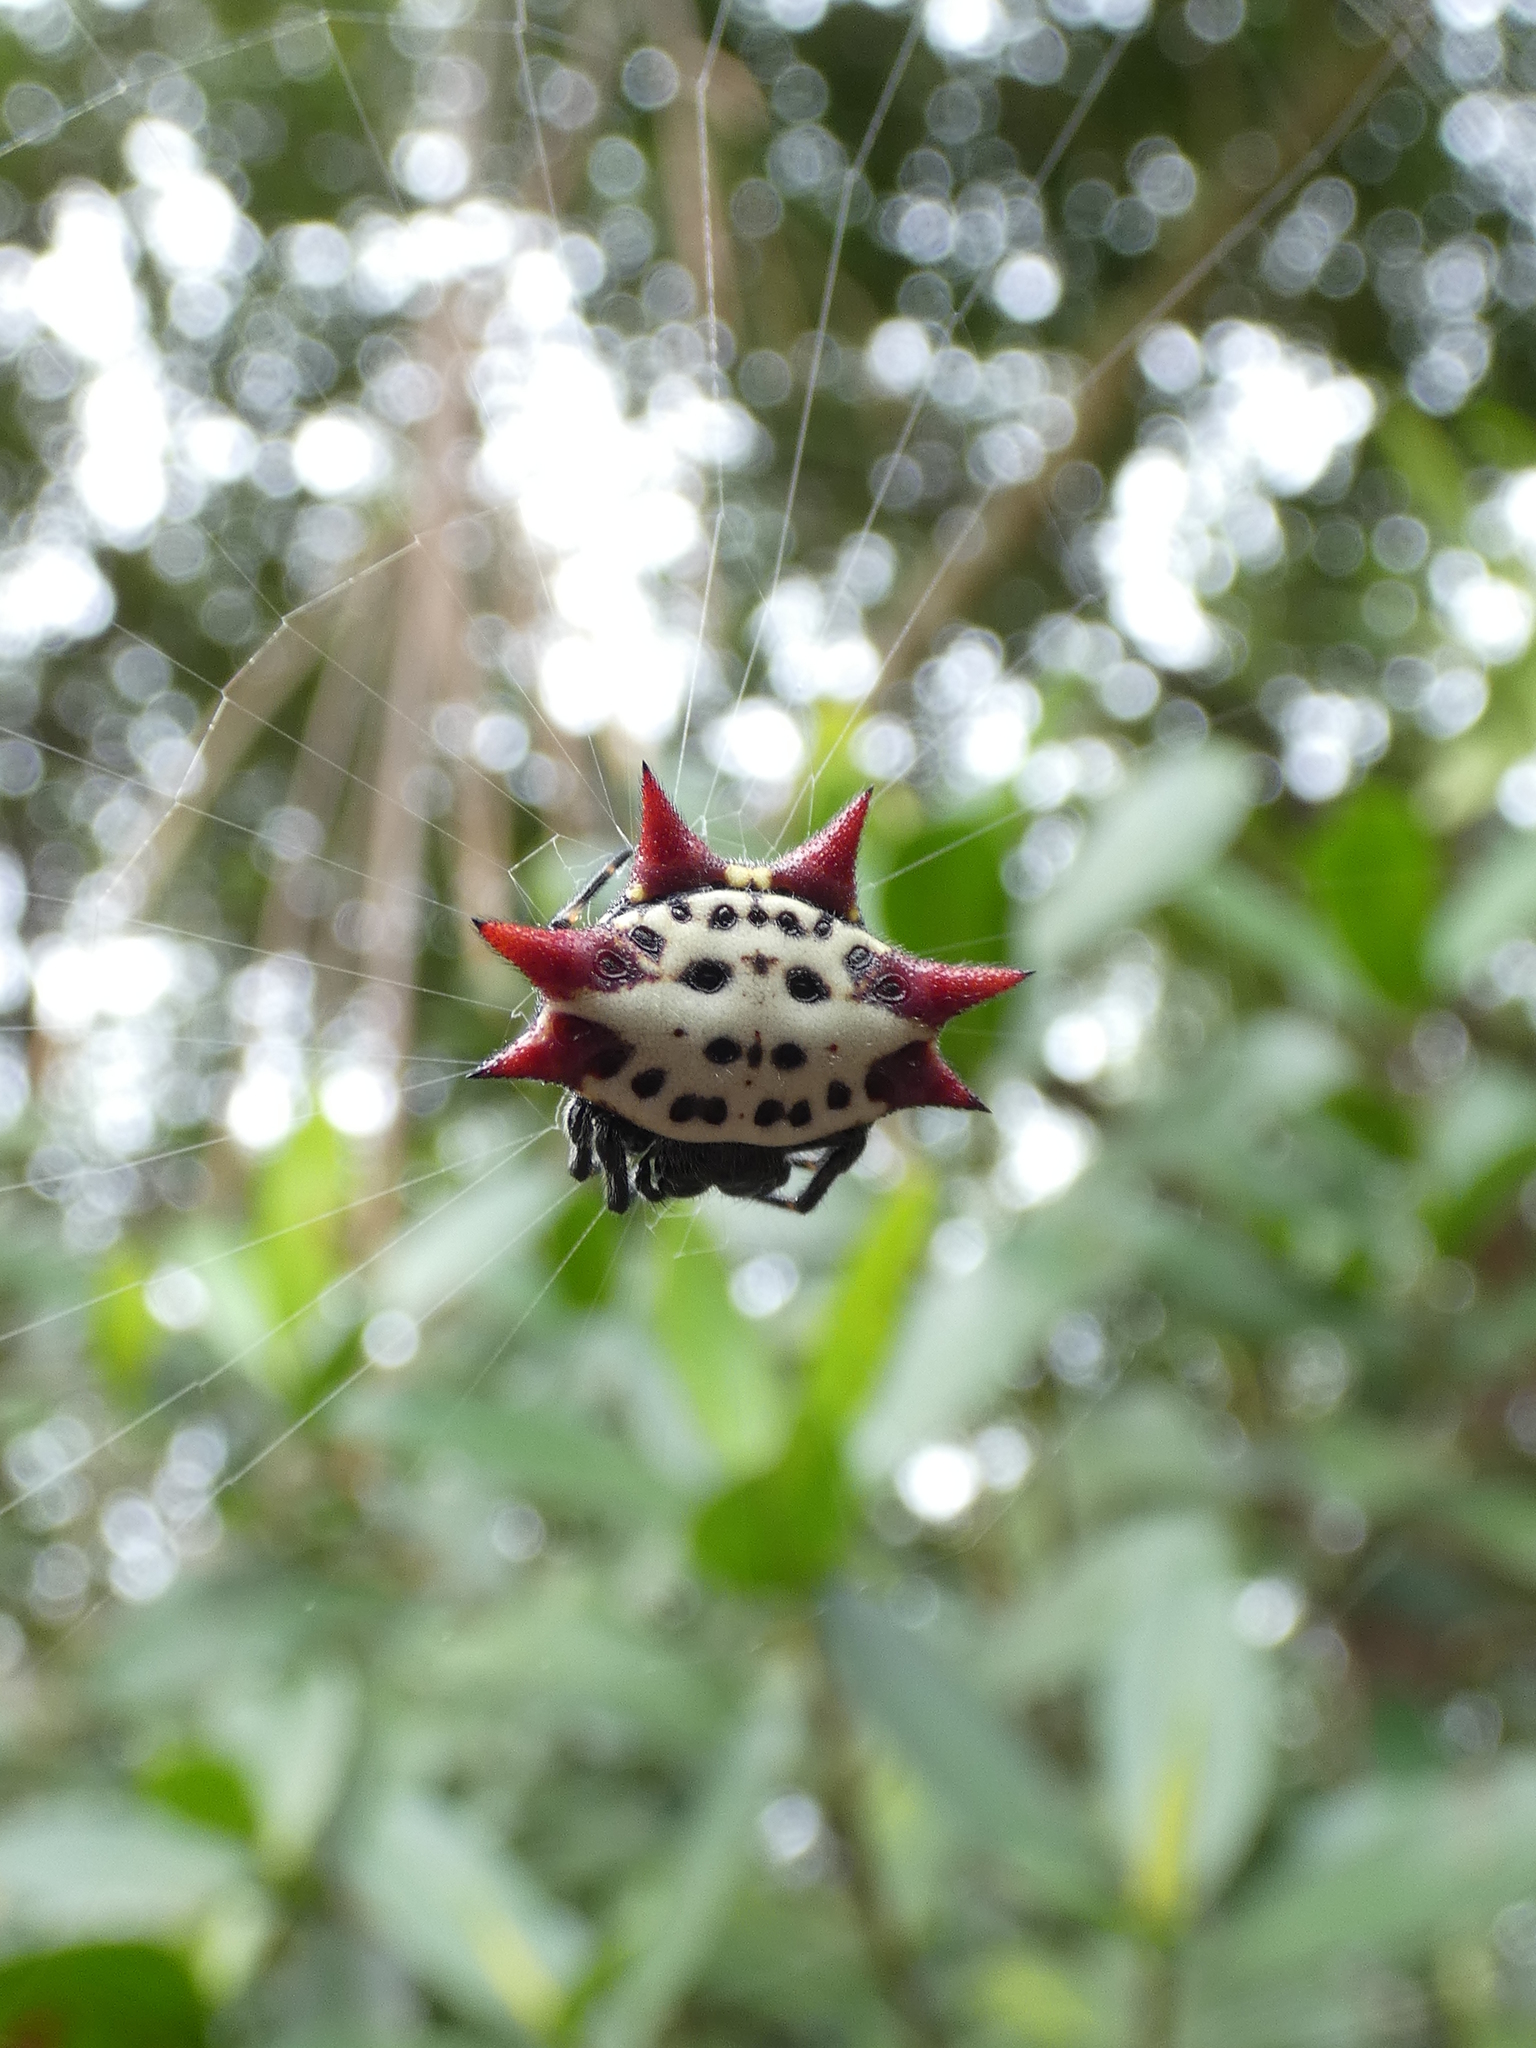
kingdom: Animalia
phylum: Arthropoda
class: Arachnida
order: Araneae
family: Araneidae
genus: Gasteracantha
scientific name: Gasteracantha cancriformis
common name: Orb weavers
